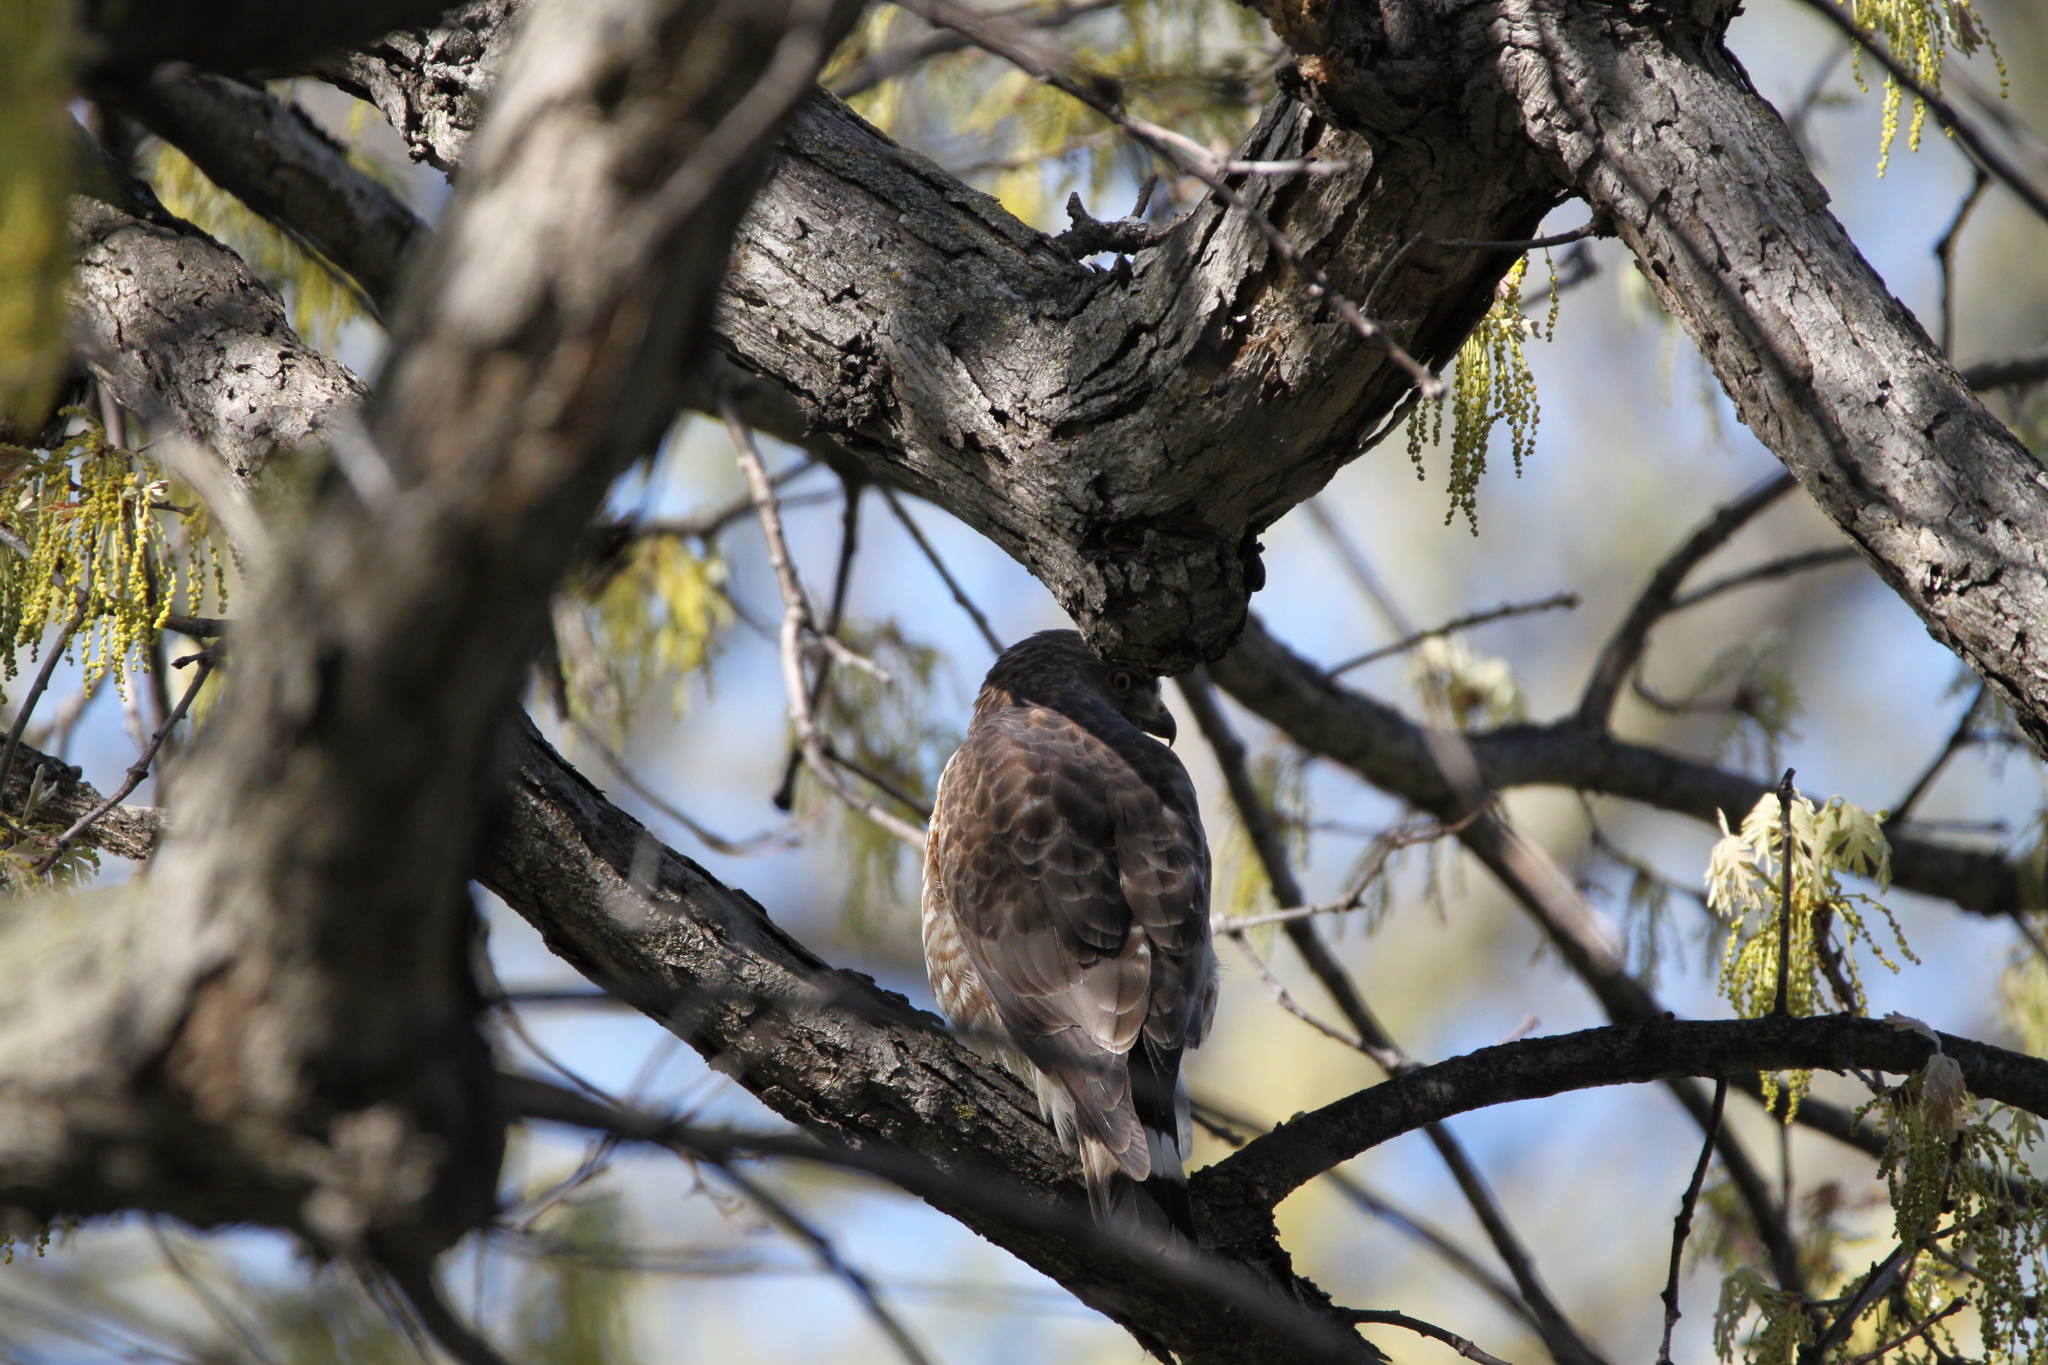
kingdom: Animalia
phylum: Chordata
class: Aves
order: Accipitriformes
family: Accipitridae
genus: Buteo
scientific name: Buteo platypterus
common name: Broad-winged hawk
